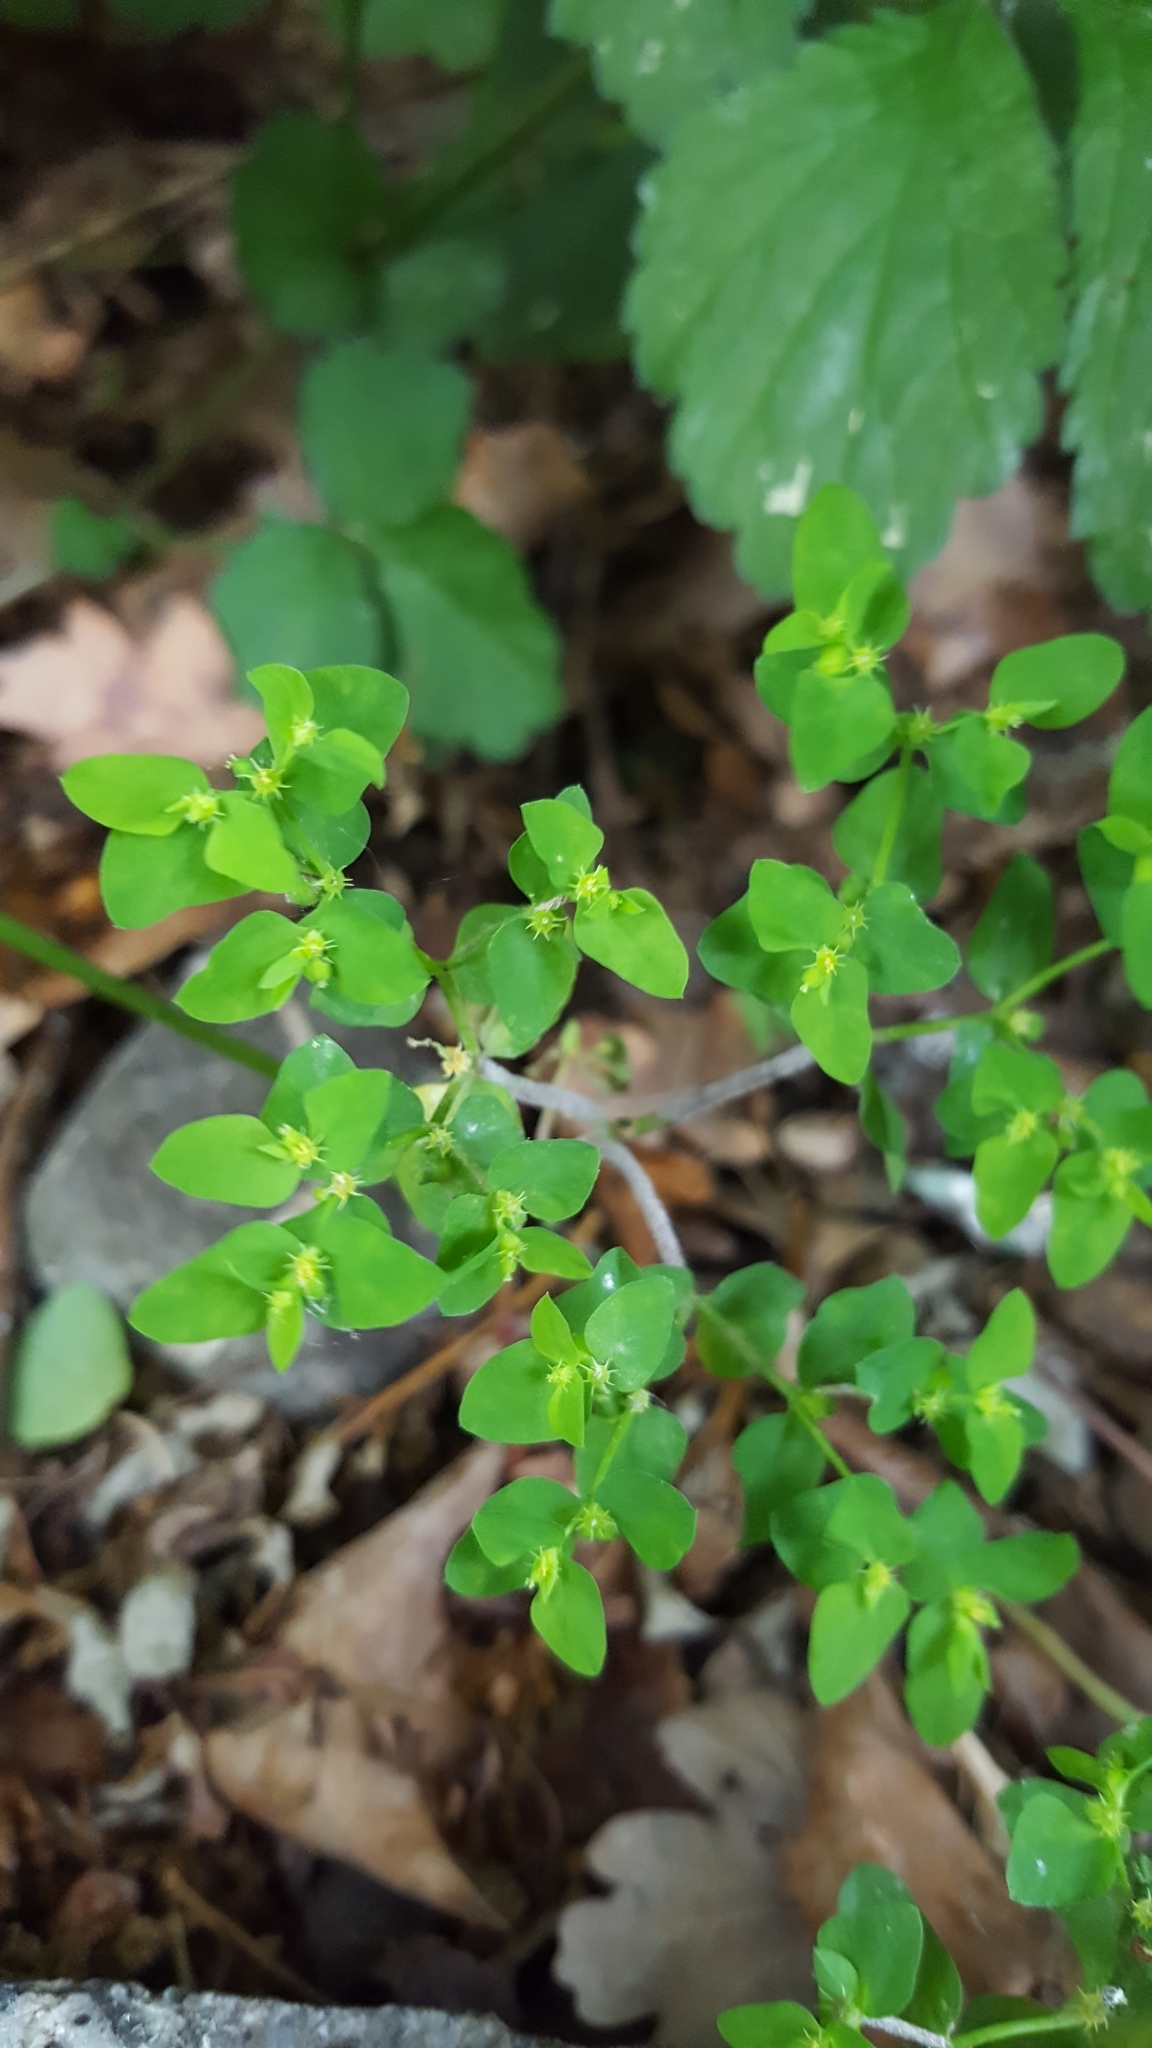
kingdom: Plantae
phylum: Tracheophyta
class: Magnoliopsida
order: Malpighiales
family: Euphorbiaceae
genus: Euphorbia
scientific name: Euphorbia peplus
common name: Petty spurge
